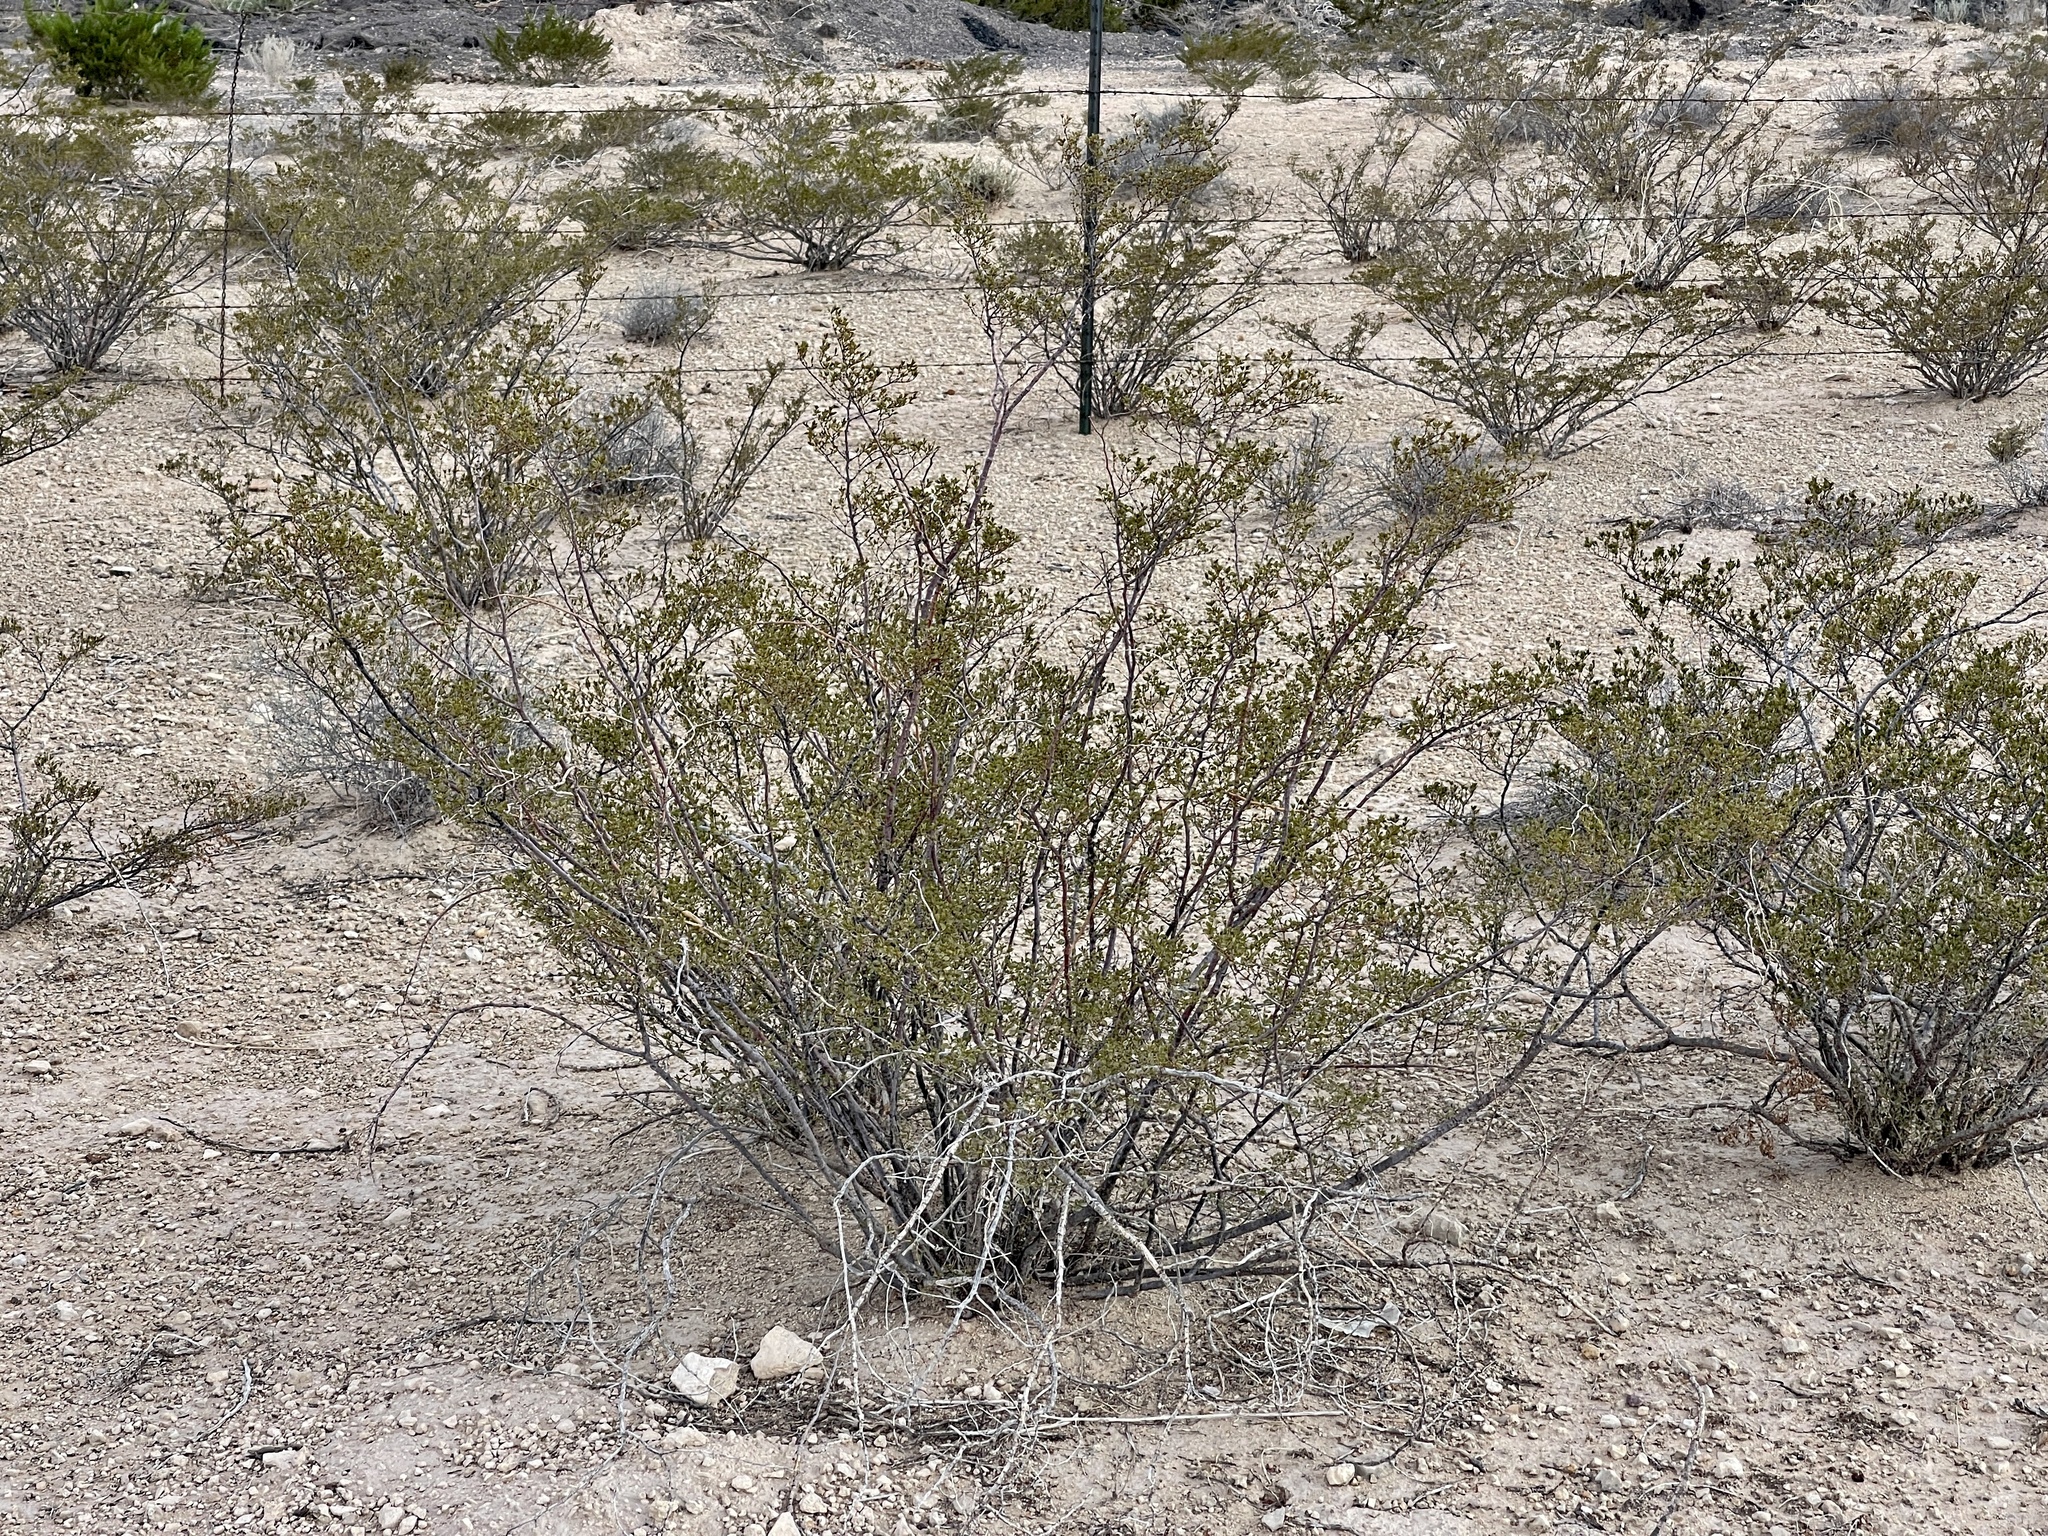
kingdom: Plantae
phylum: Tracheophyta
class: Magnoliopsida
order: Zygophyllales
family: Zygophyllaceae
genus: Larrea
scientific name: Larrea tridentata
